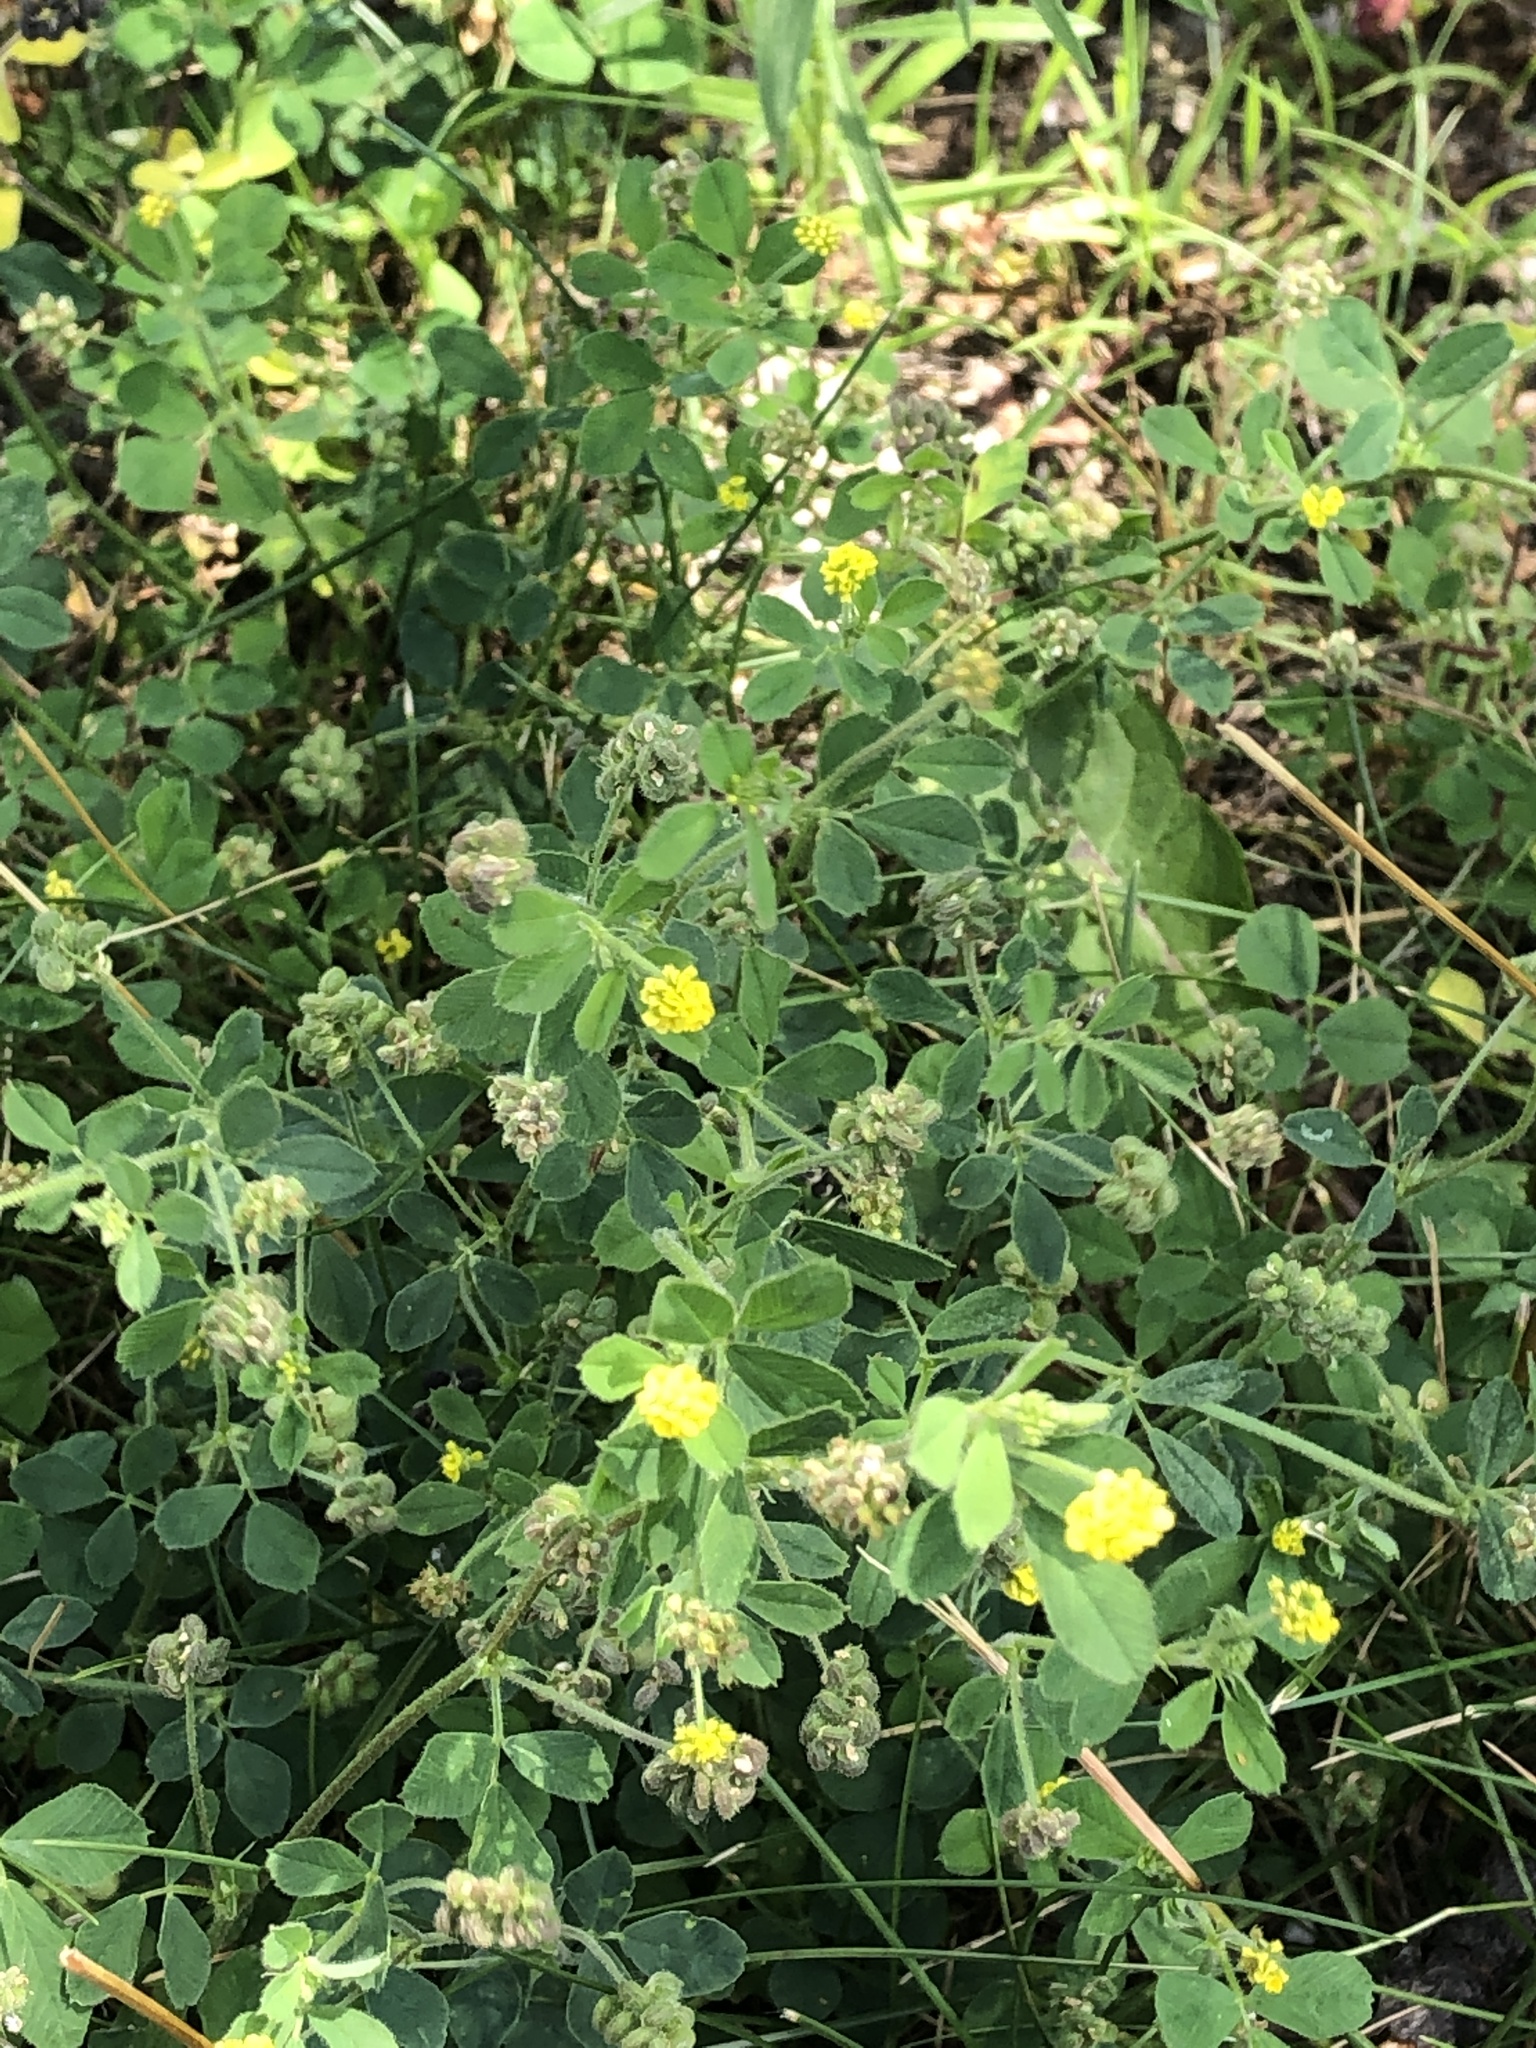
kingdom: Plantae
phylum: Tracheophyta
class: Magnoliopsida
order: Fabales
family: Fabaceae
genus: Medicago
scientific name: Medicago lupulina
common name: Black medick
